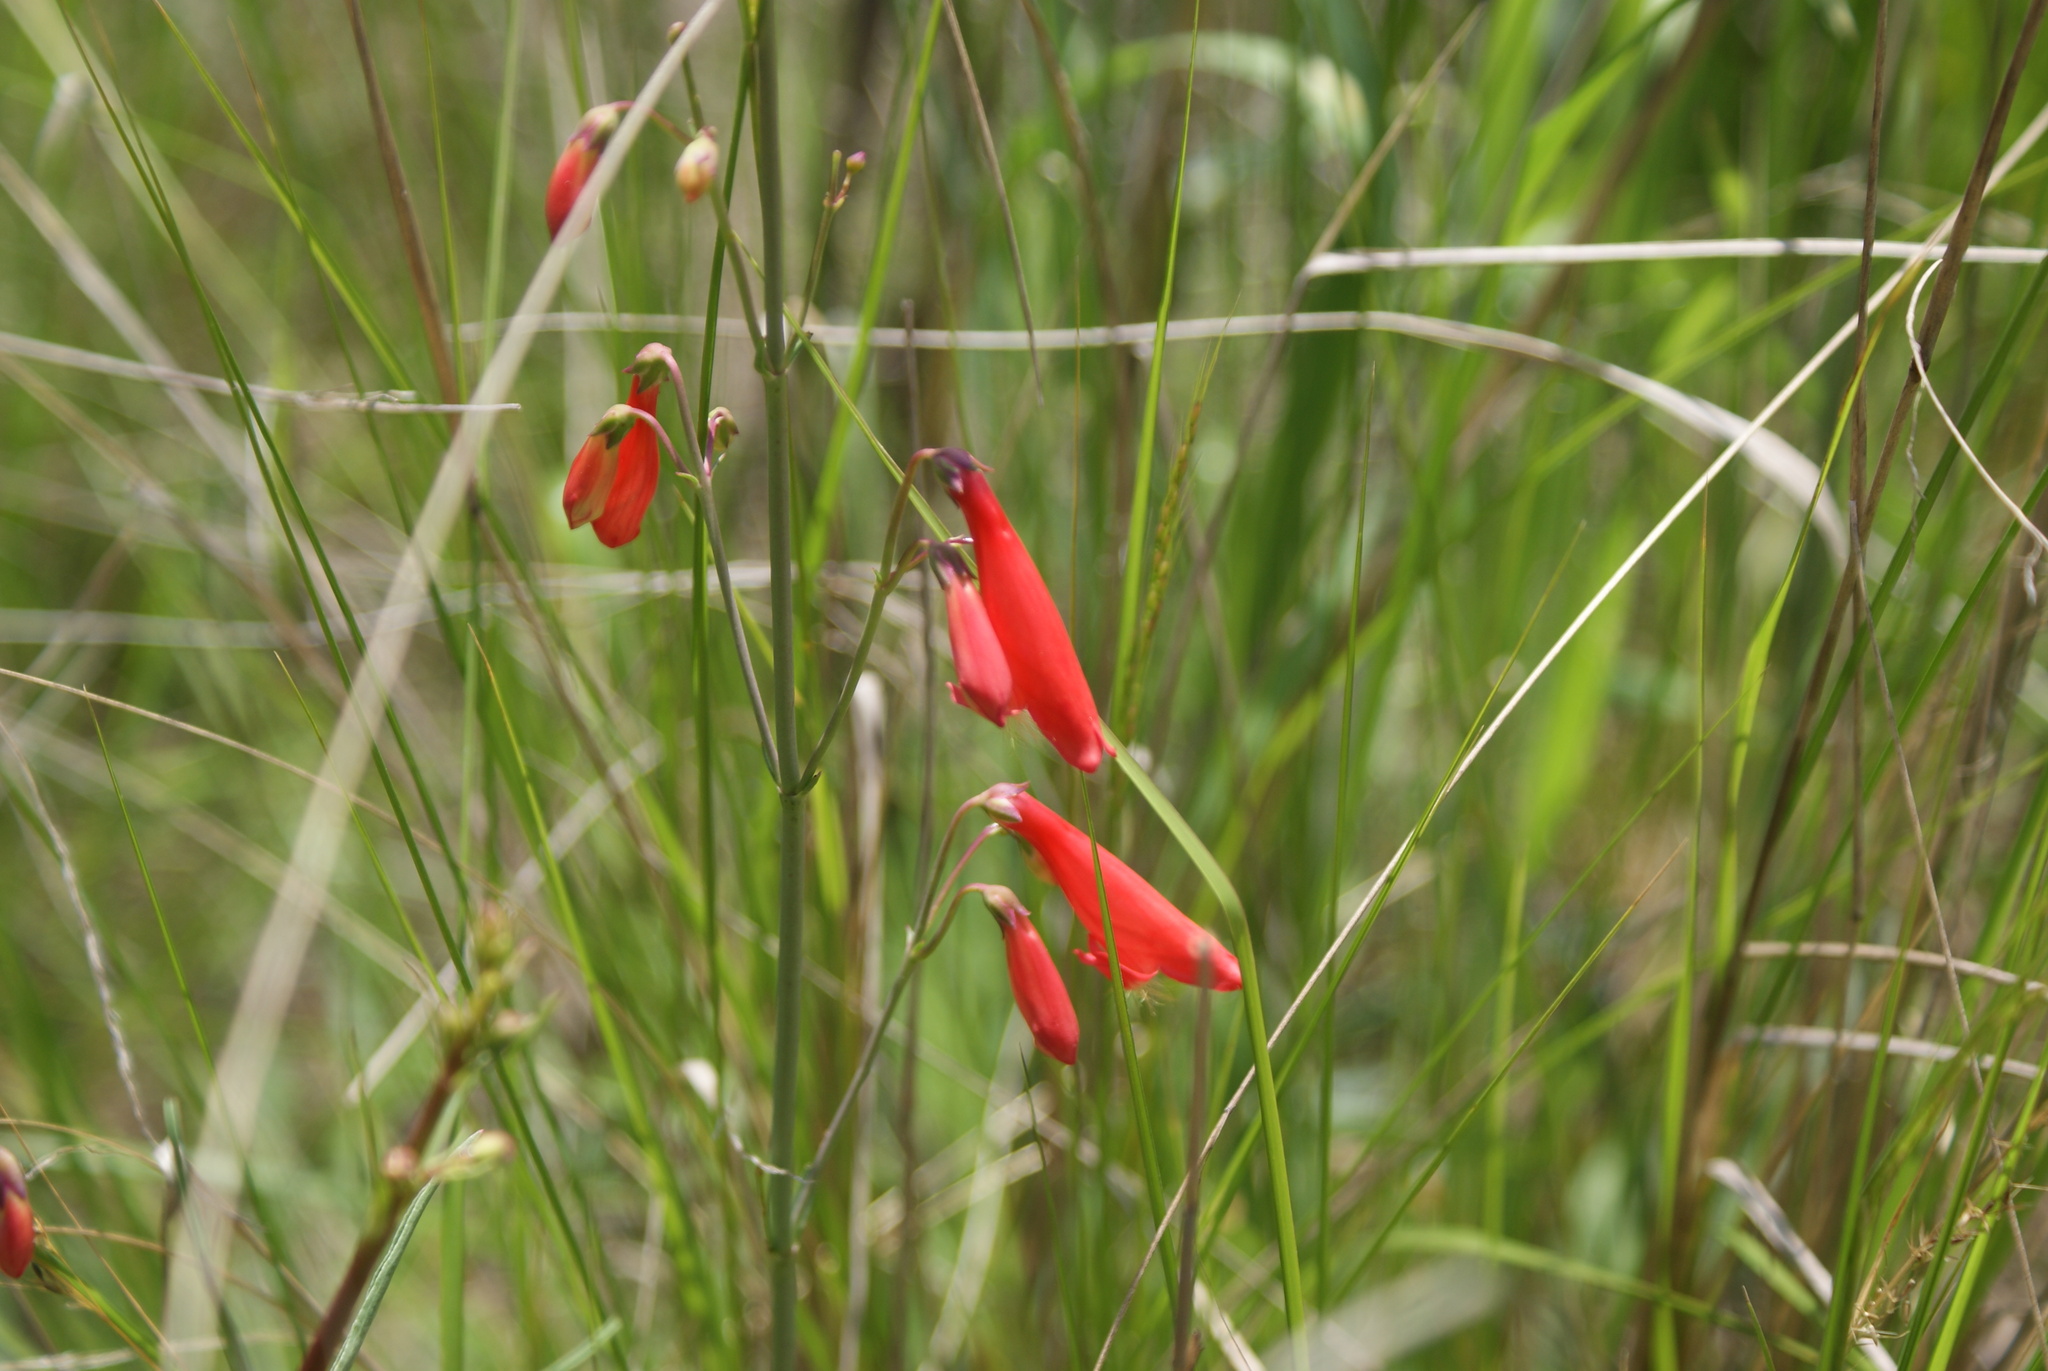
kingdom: Plantae
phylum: Tracheophyta
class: Magnoliopsida
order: Lamiales
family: Plantaginaceae
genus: Penstemon
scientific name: Penstemon barbatus
